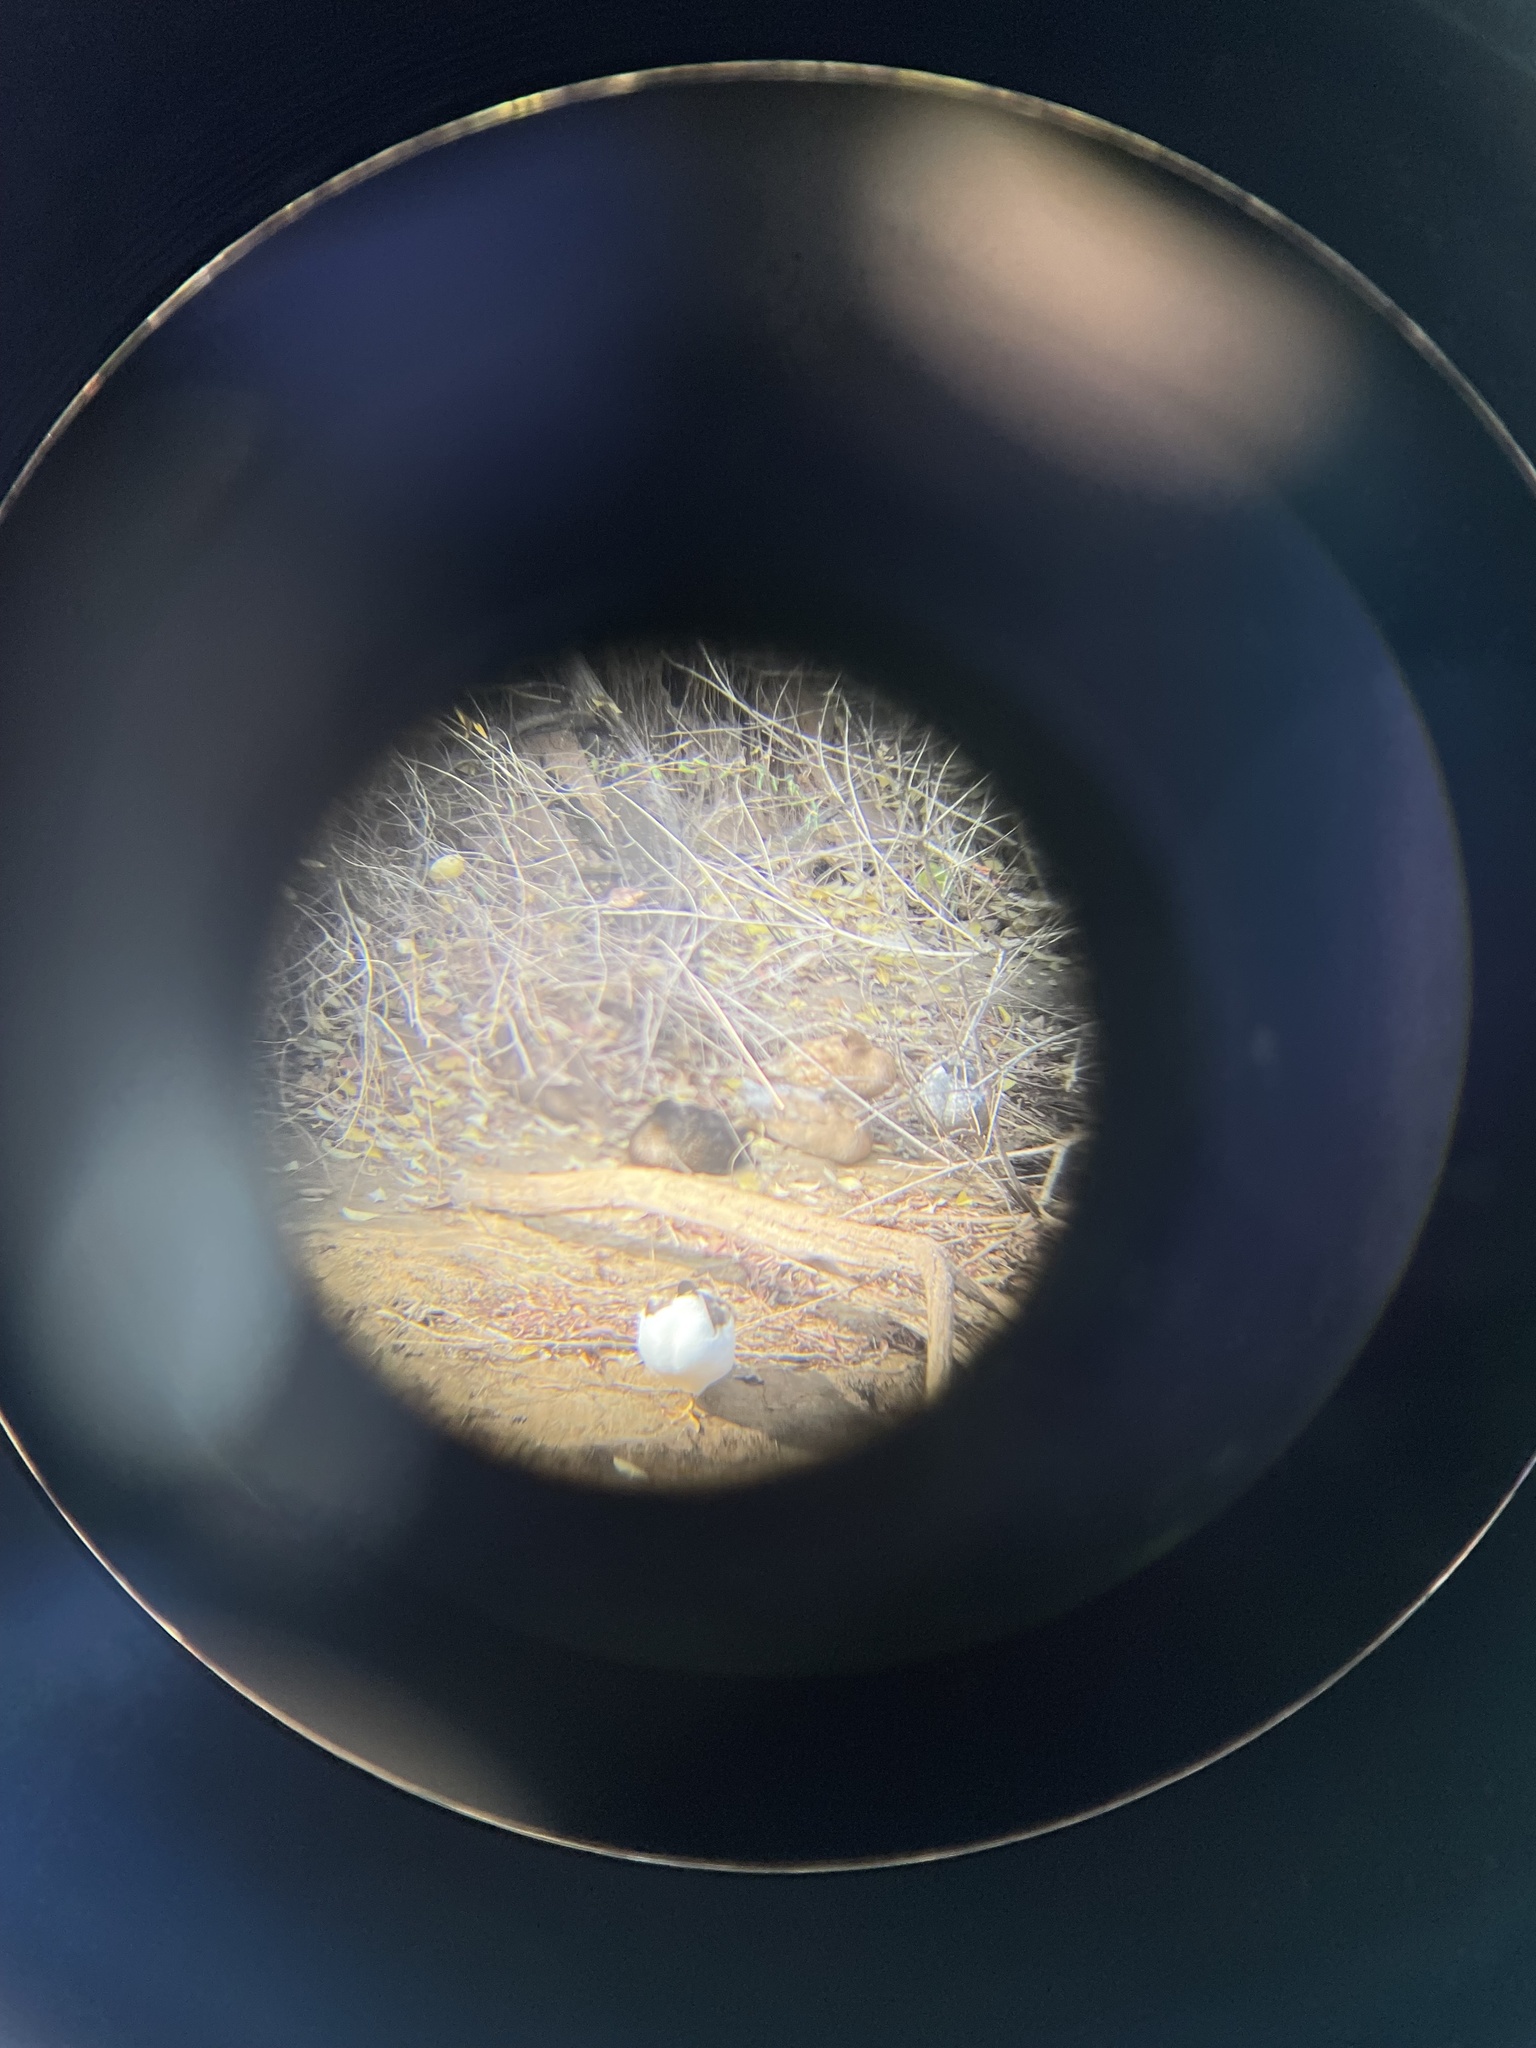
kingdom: Animalia
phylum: Chordata
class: Aves
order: Anseriformes
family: Anatidae
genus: Anas
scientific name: Anas platyrhynchos
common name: Mallard
